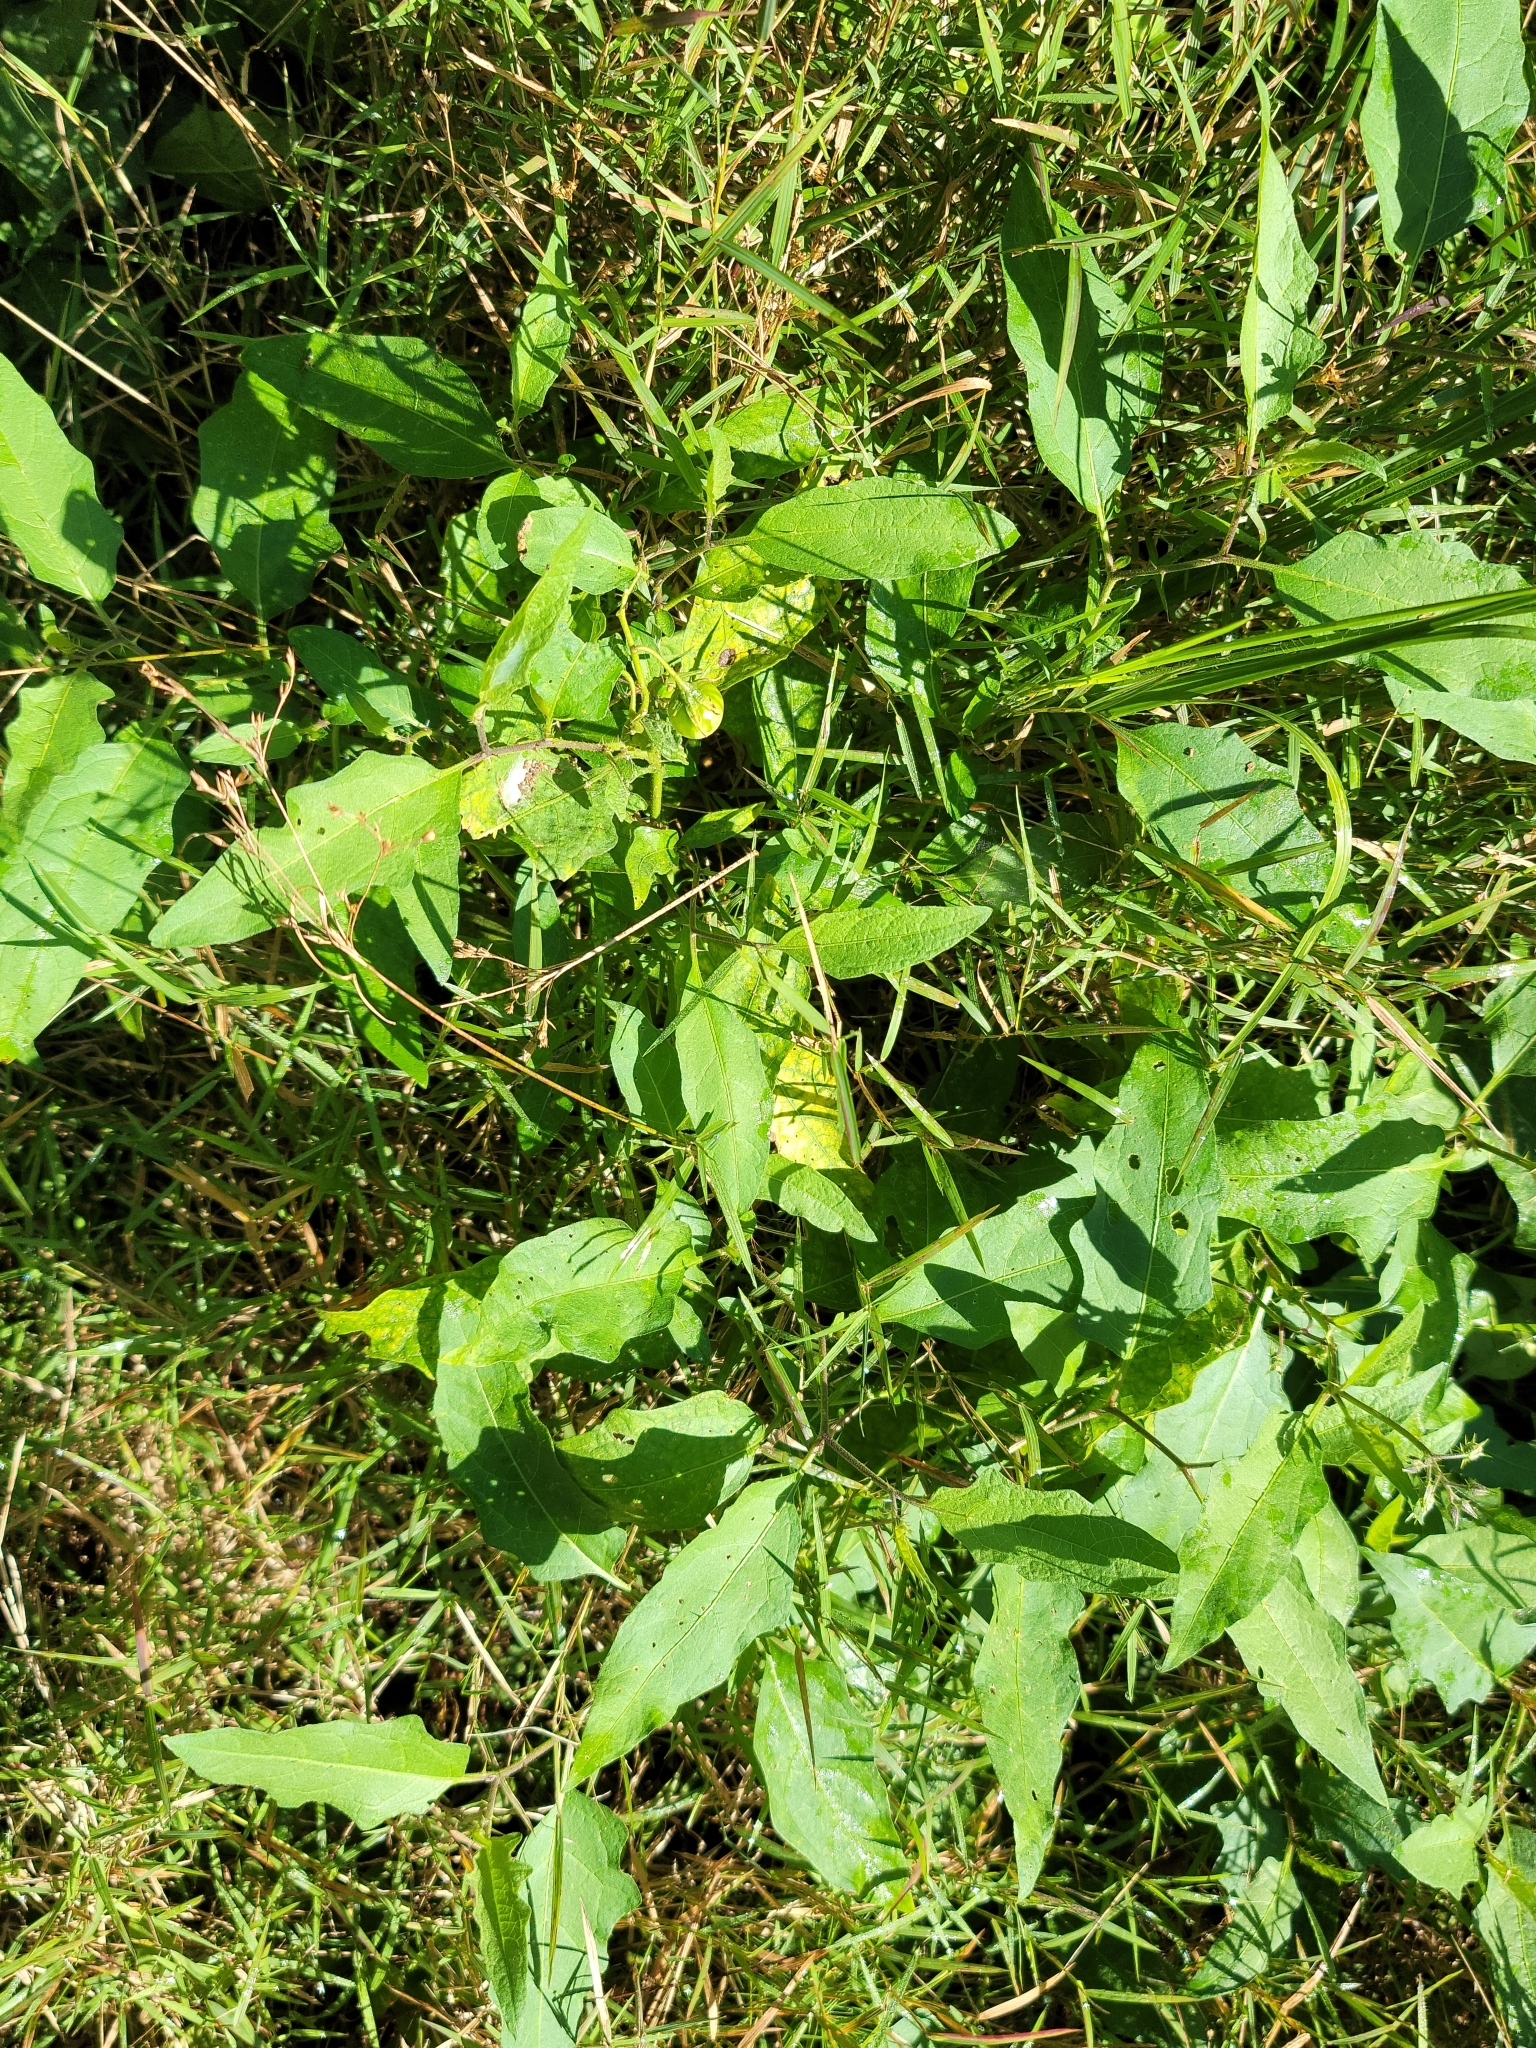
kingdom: Plantae
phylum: Tracheophyta
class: Magnoliopsida
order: Solanales
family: Solanaceae
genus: Solanum
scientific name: Solanum carolinense
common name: Horse-nettle
